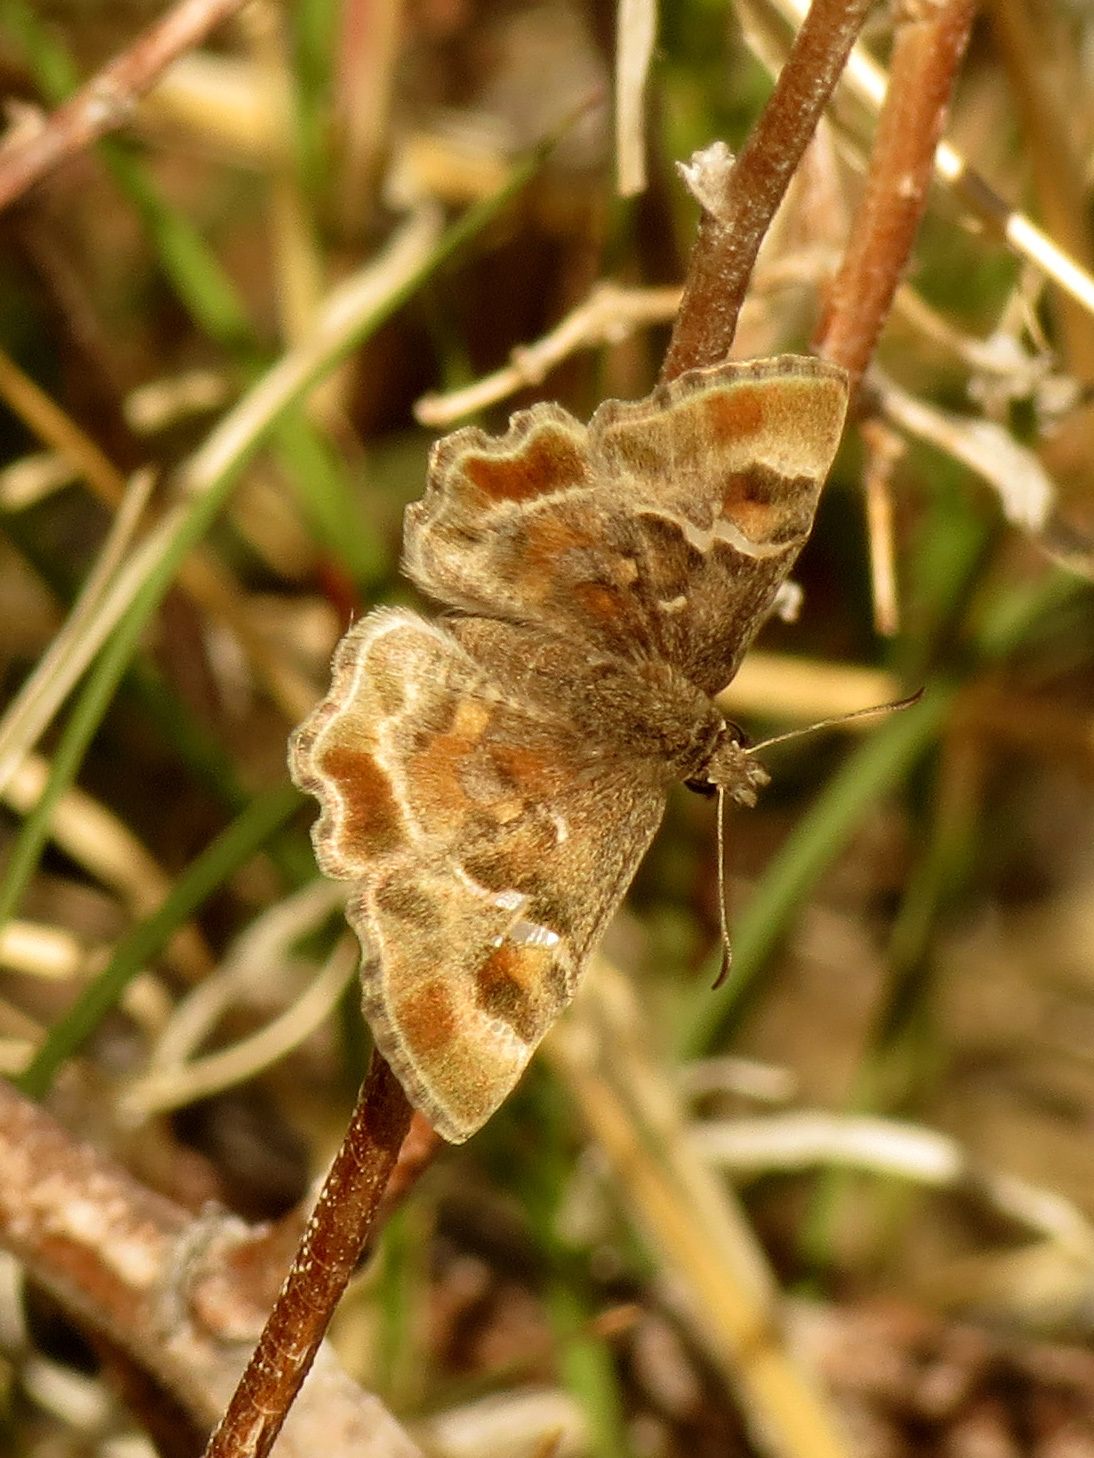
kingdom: Animalia
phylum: Arthropoda
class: Insecta
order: Lepidoptera
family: Hesperiidae
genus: Systasea
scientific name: Systasea zampa
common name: Arizona powdered-skipper
